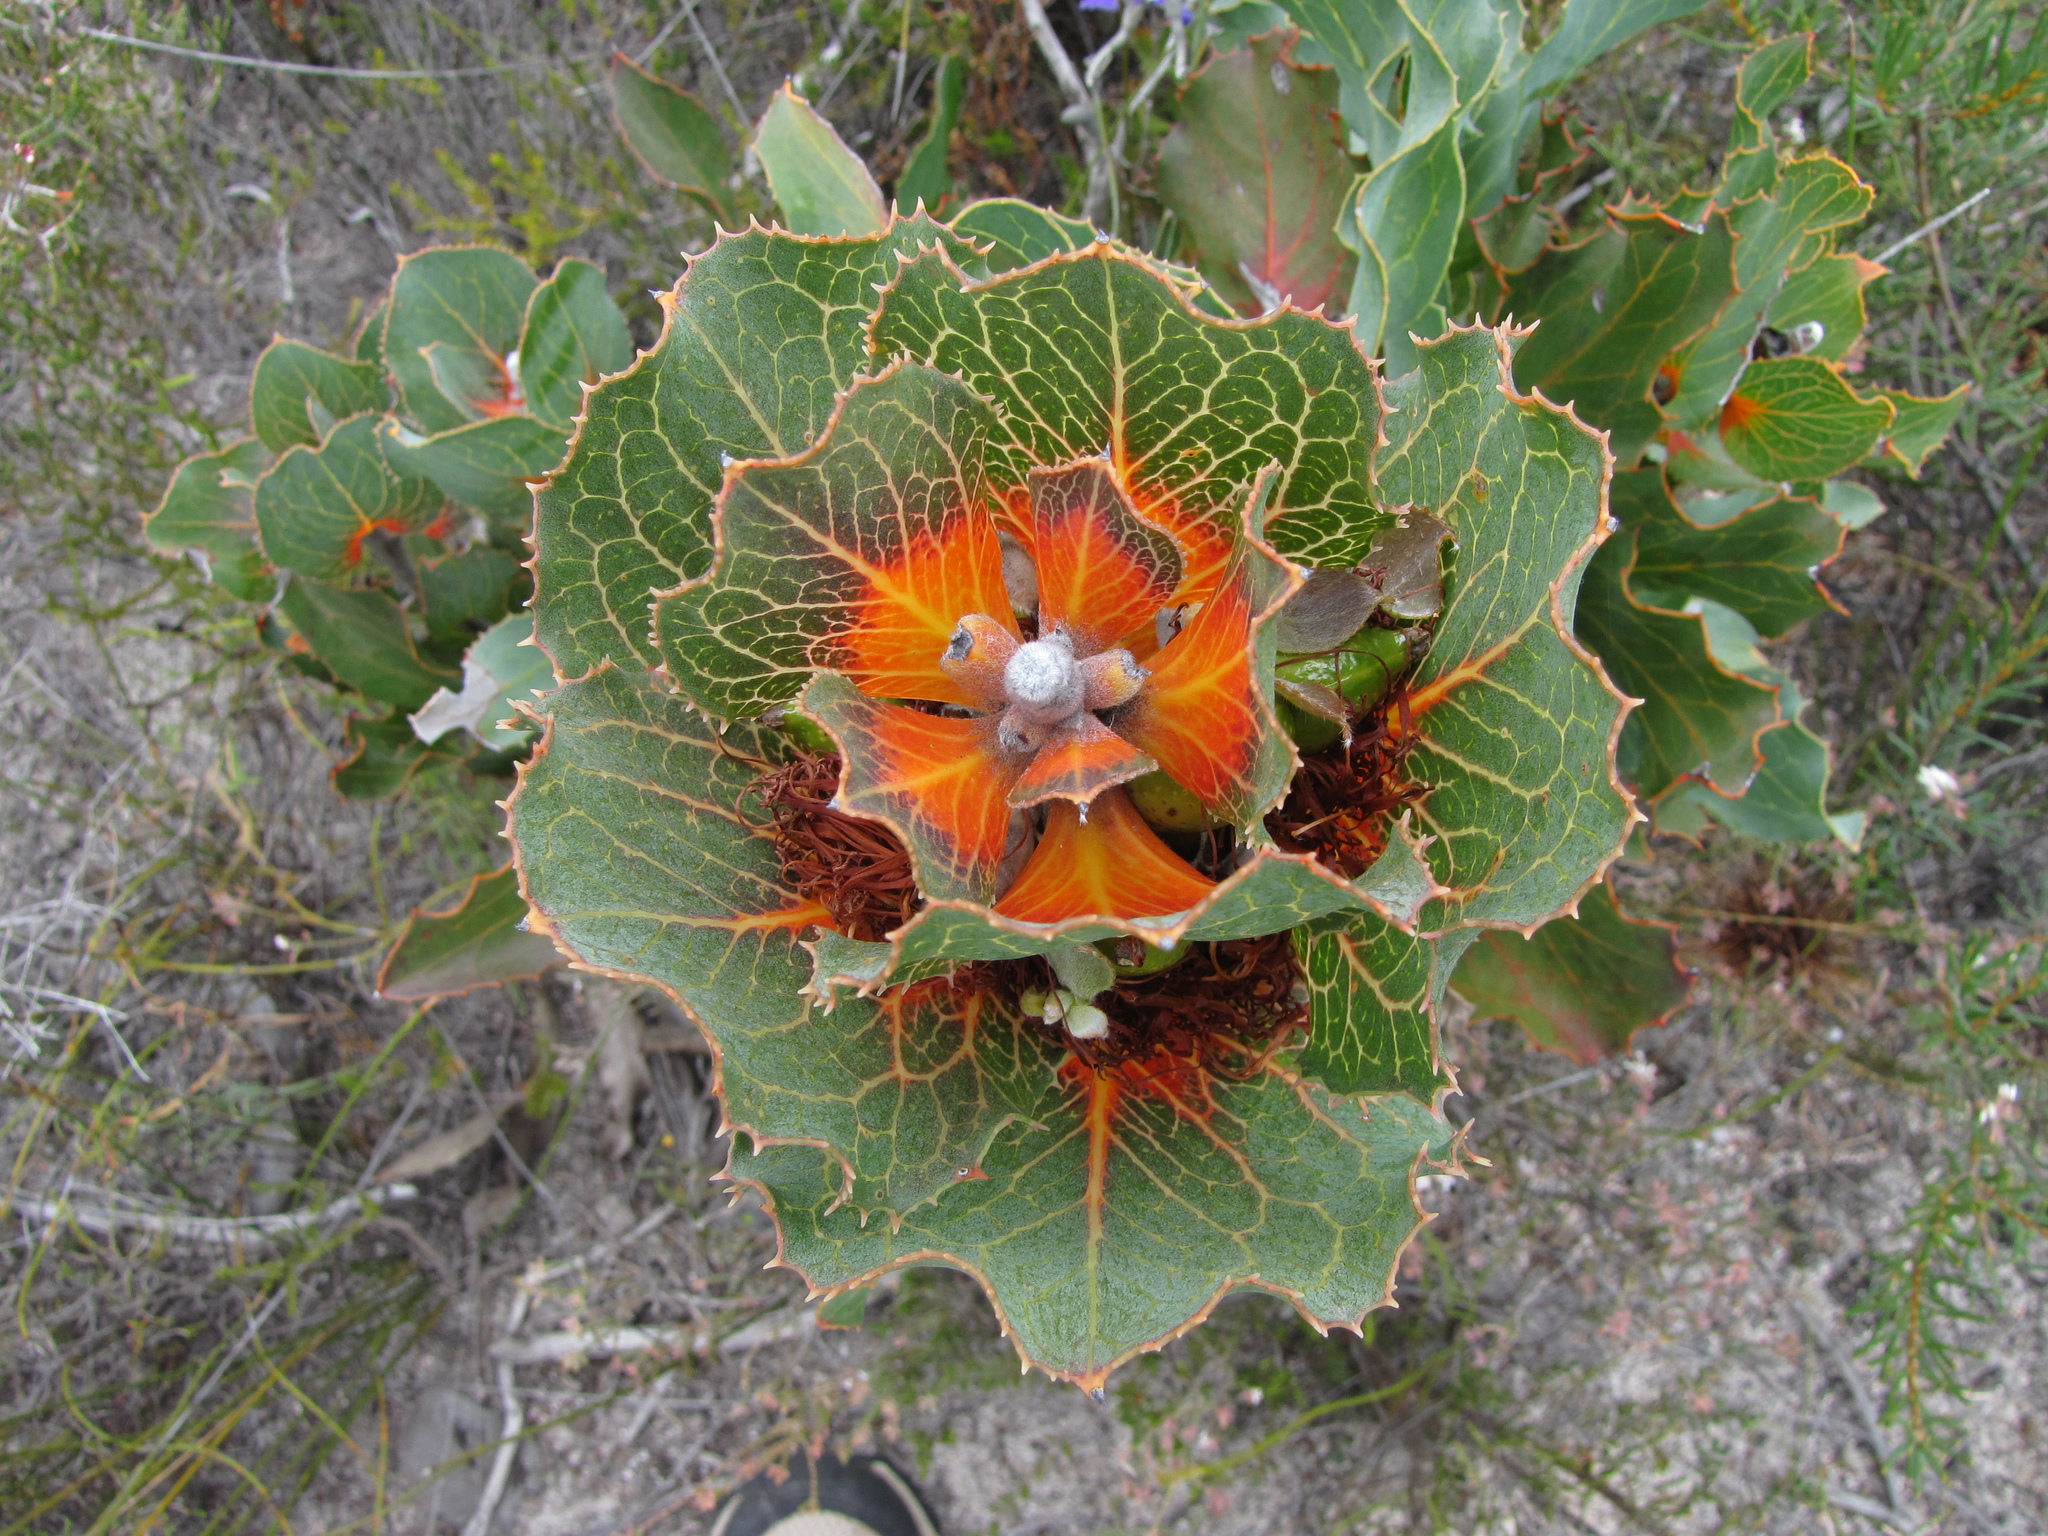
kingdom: Plantae
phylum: Tracheophyta
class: Magnoliopsida
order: Proteales
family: Proteaceae
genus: Hakea
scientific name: Hakea victoria
